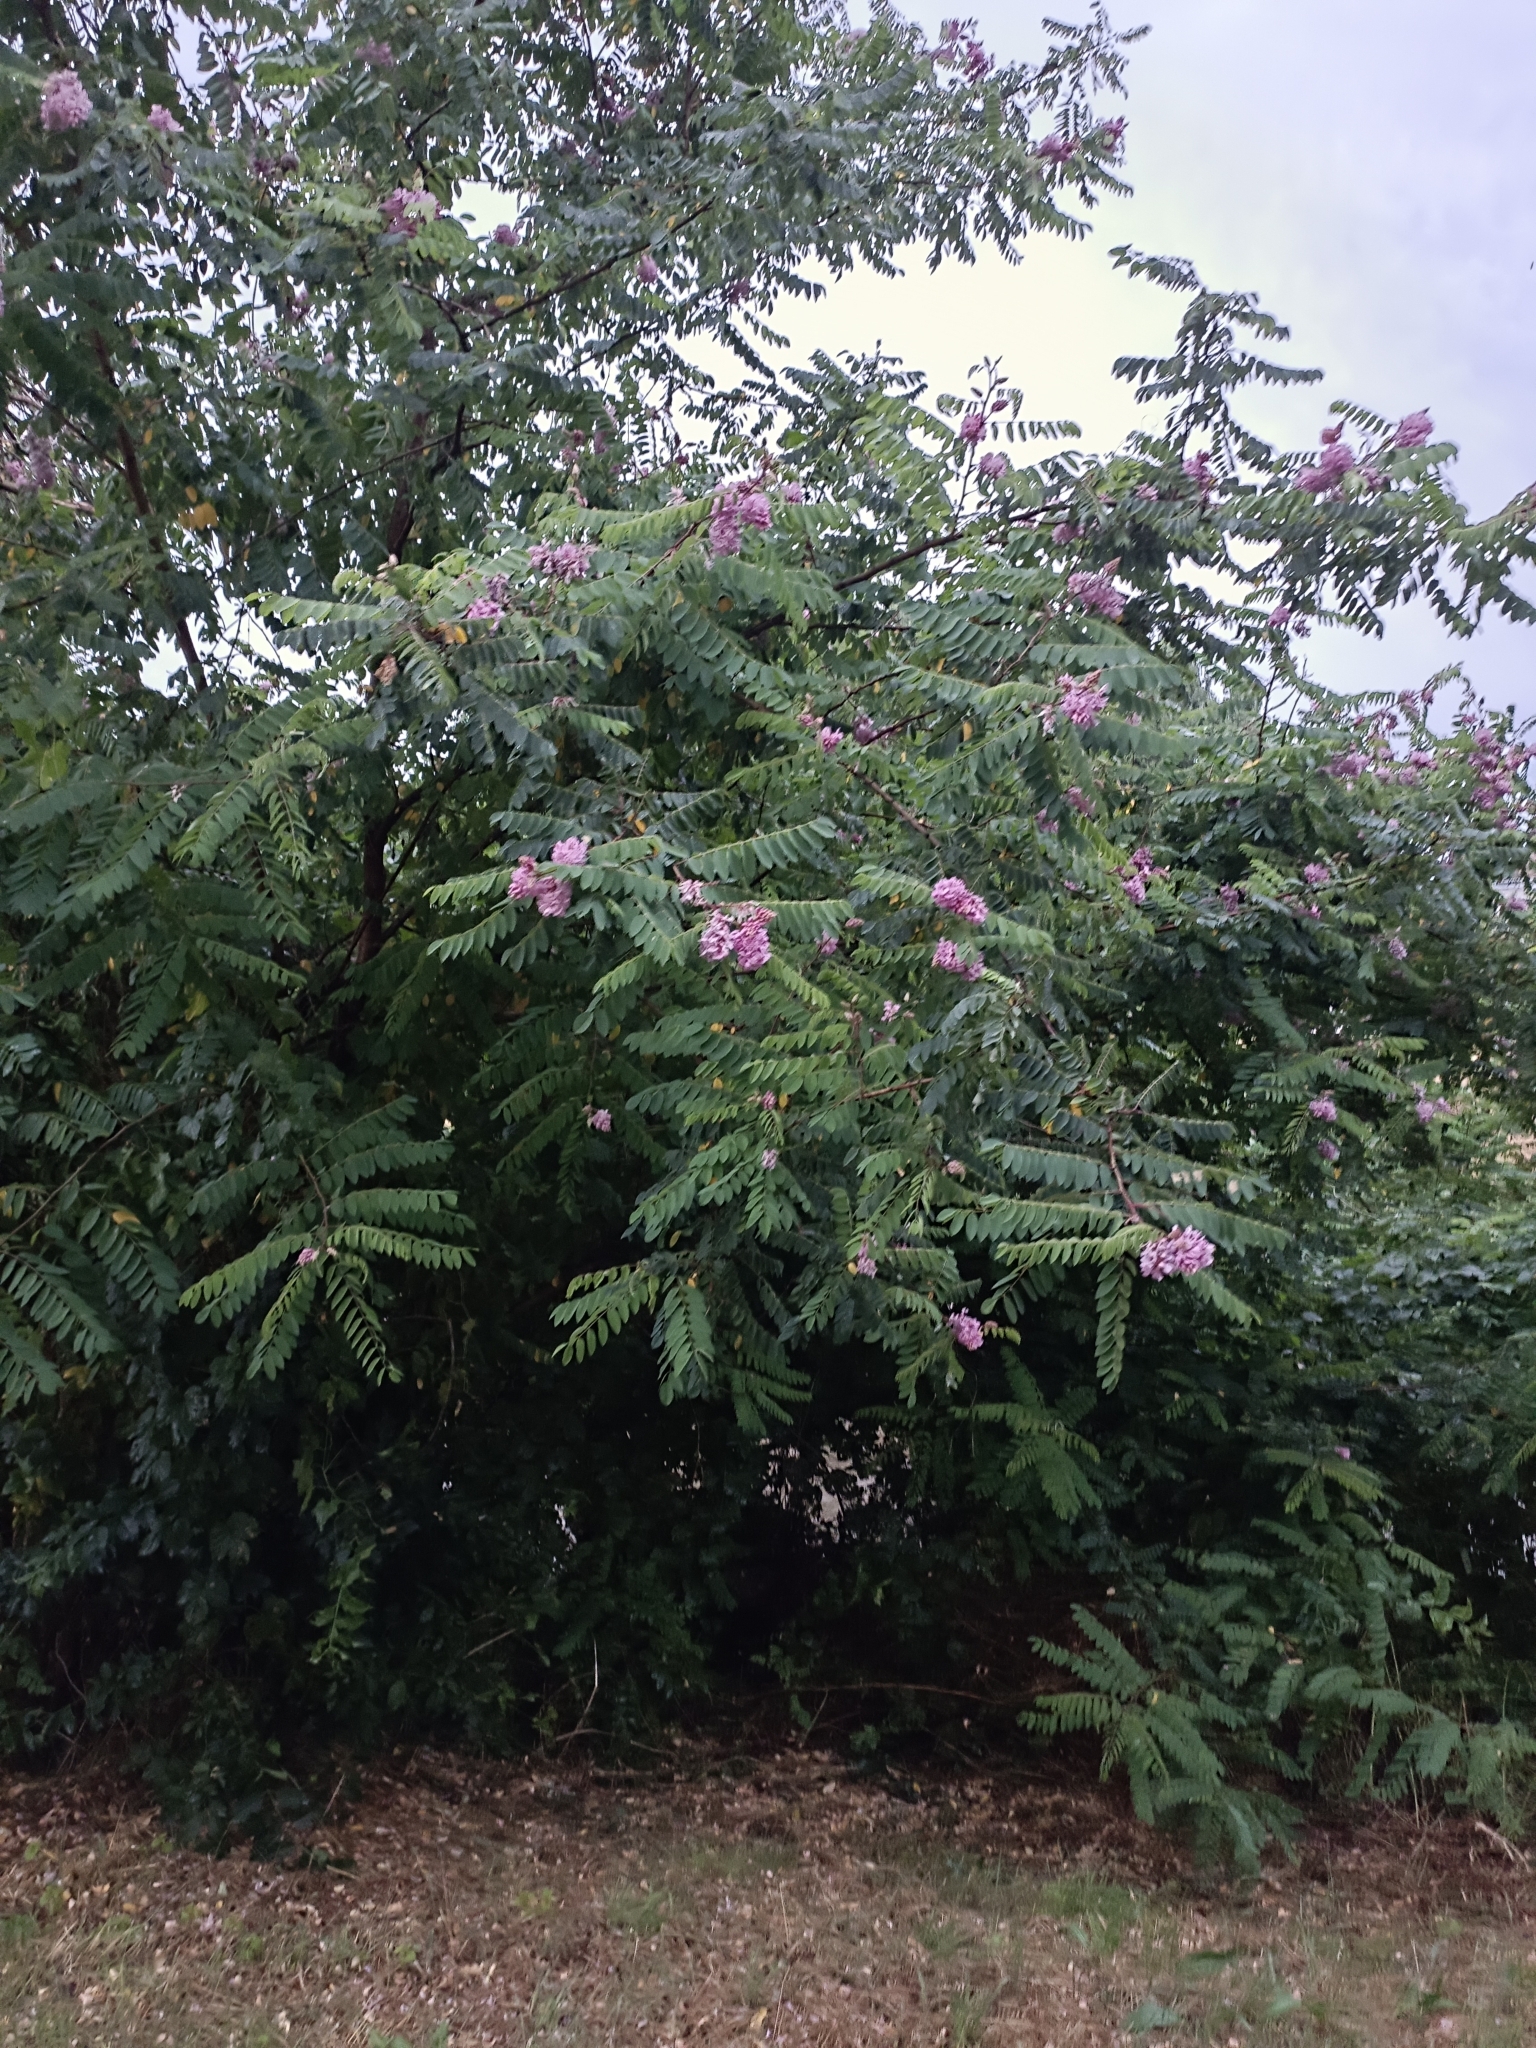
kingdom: Plantae
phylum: Tracheophyta
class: Magnoliopsida
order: Fabales
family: Fabaceae
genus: Robinia
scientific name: Robinia viscosa
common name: Clammy locust
